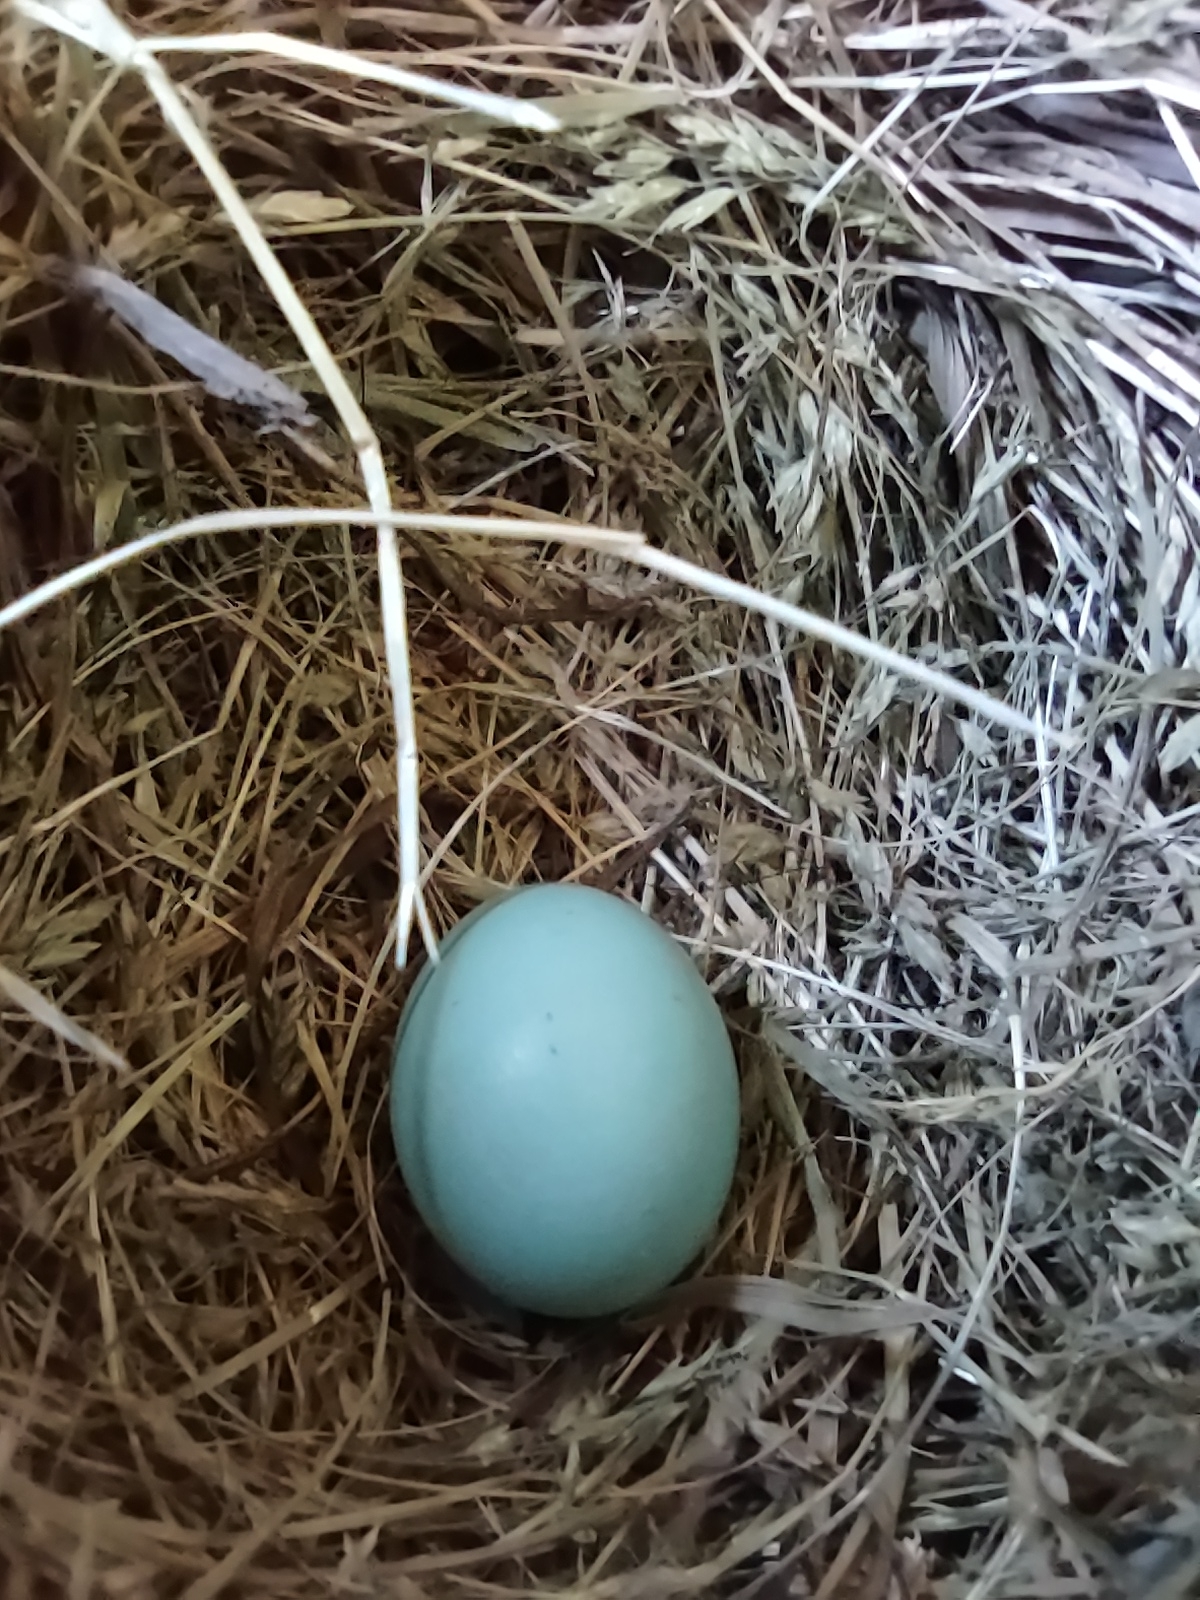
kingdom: Animalia
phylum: Chordata
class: Aves
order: Passeriformes
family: Turdidae
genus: Sialia
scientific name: Sialia sialis
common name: Eastern bluebird
